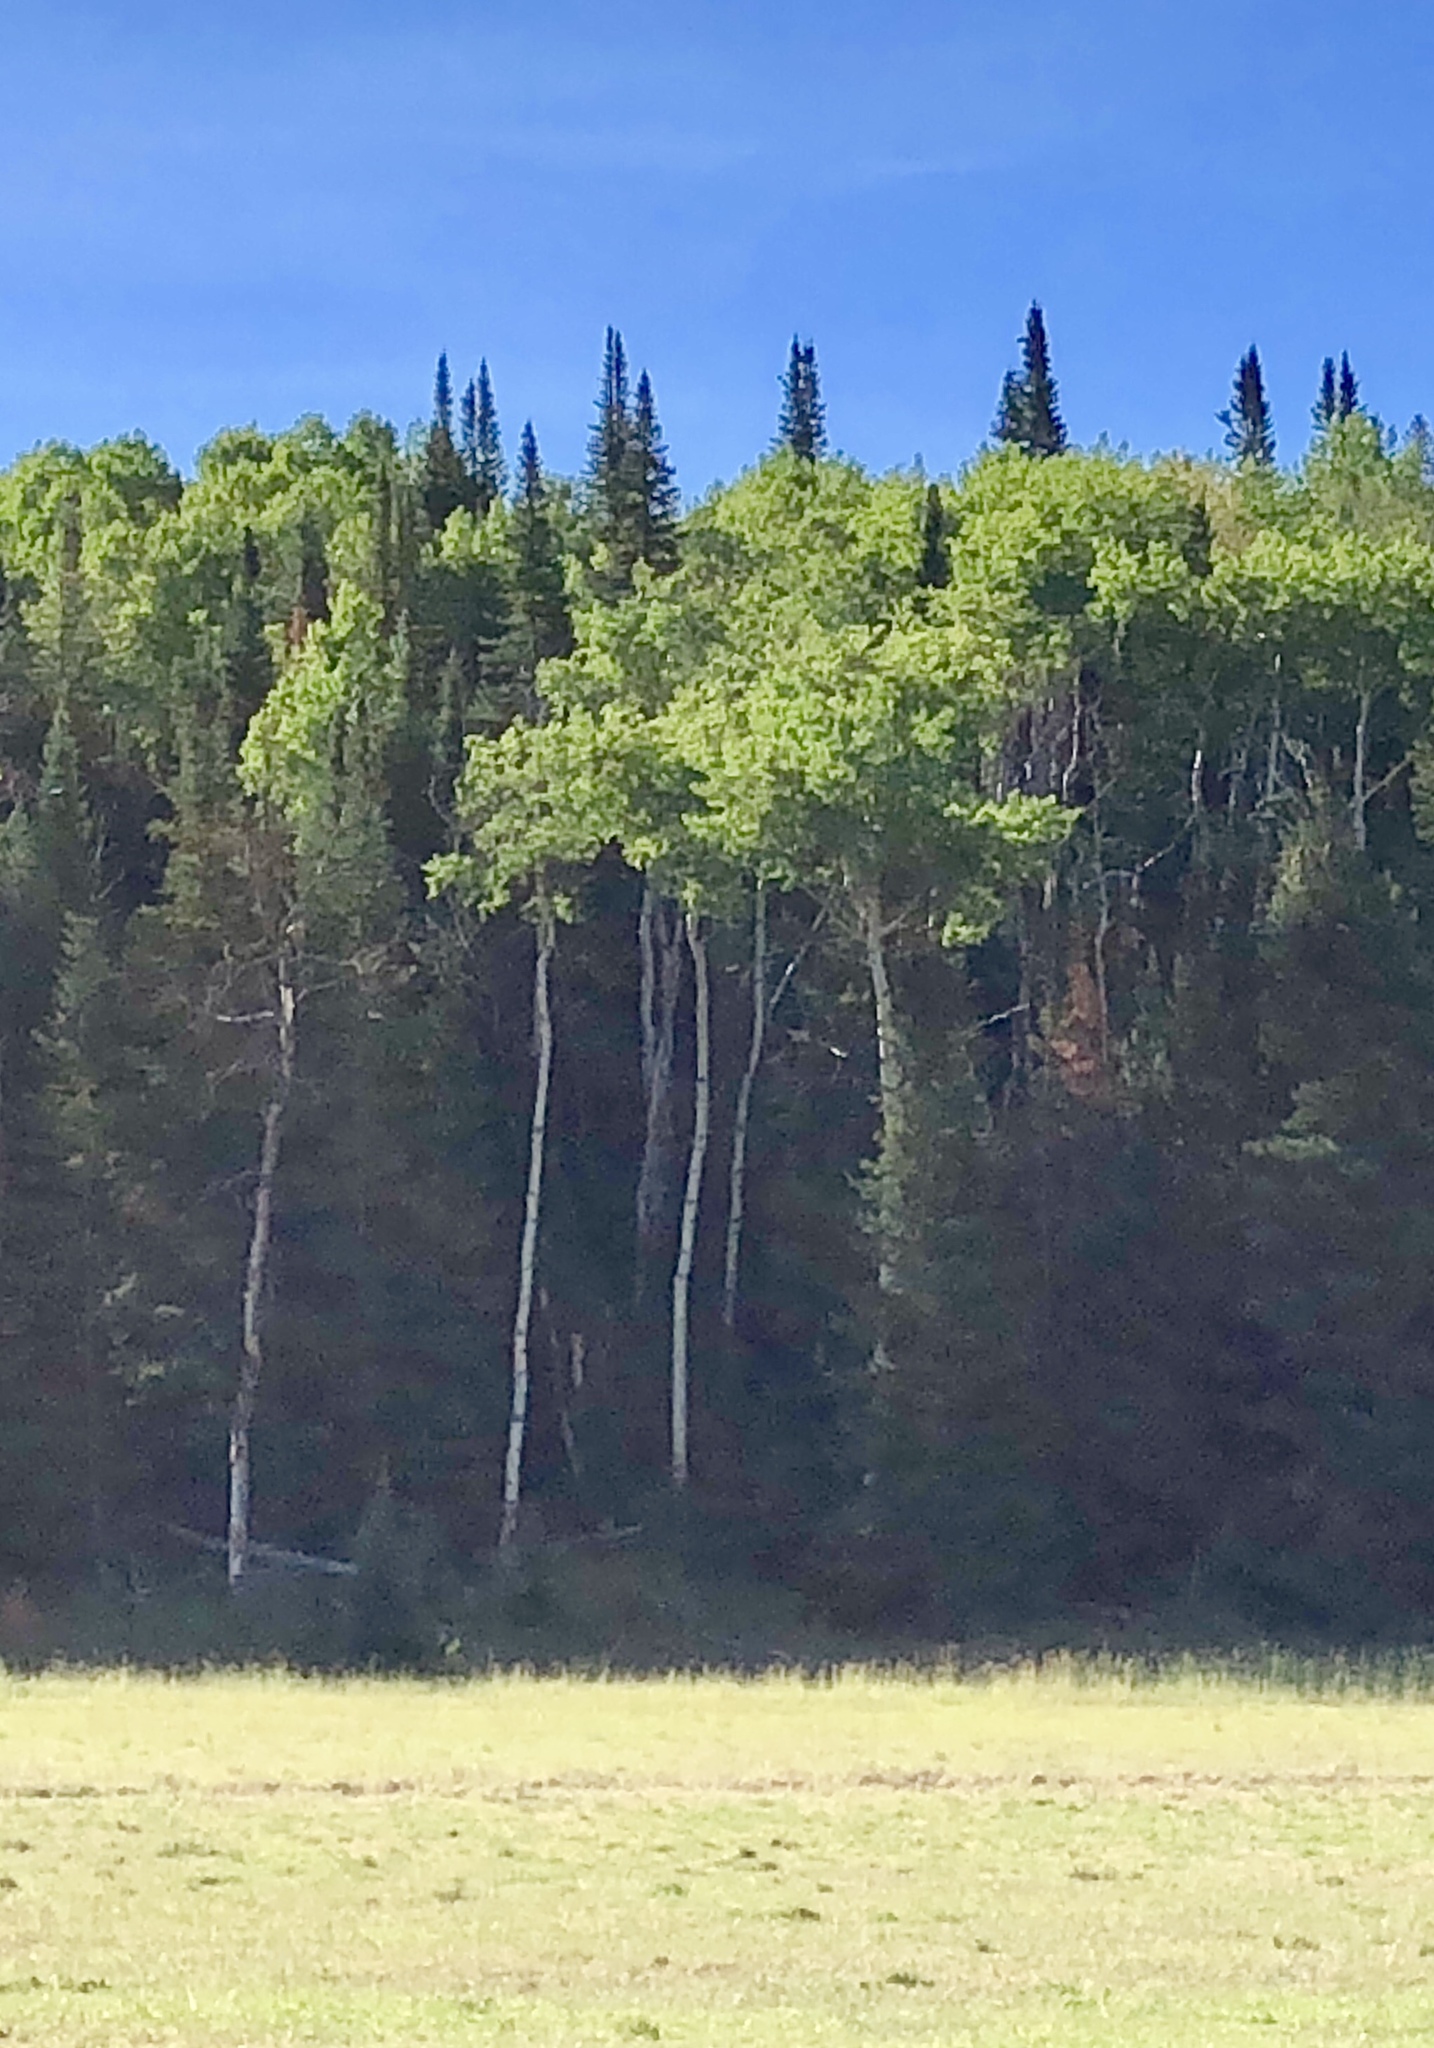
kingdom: Plantae
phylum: Tracheophyta
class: Magnoliopsida
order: Malpighiales
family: Salicaceae
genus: Populus
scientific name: Populus tremuloides
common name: Quaking aspen
